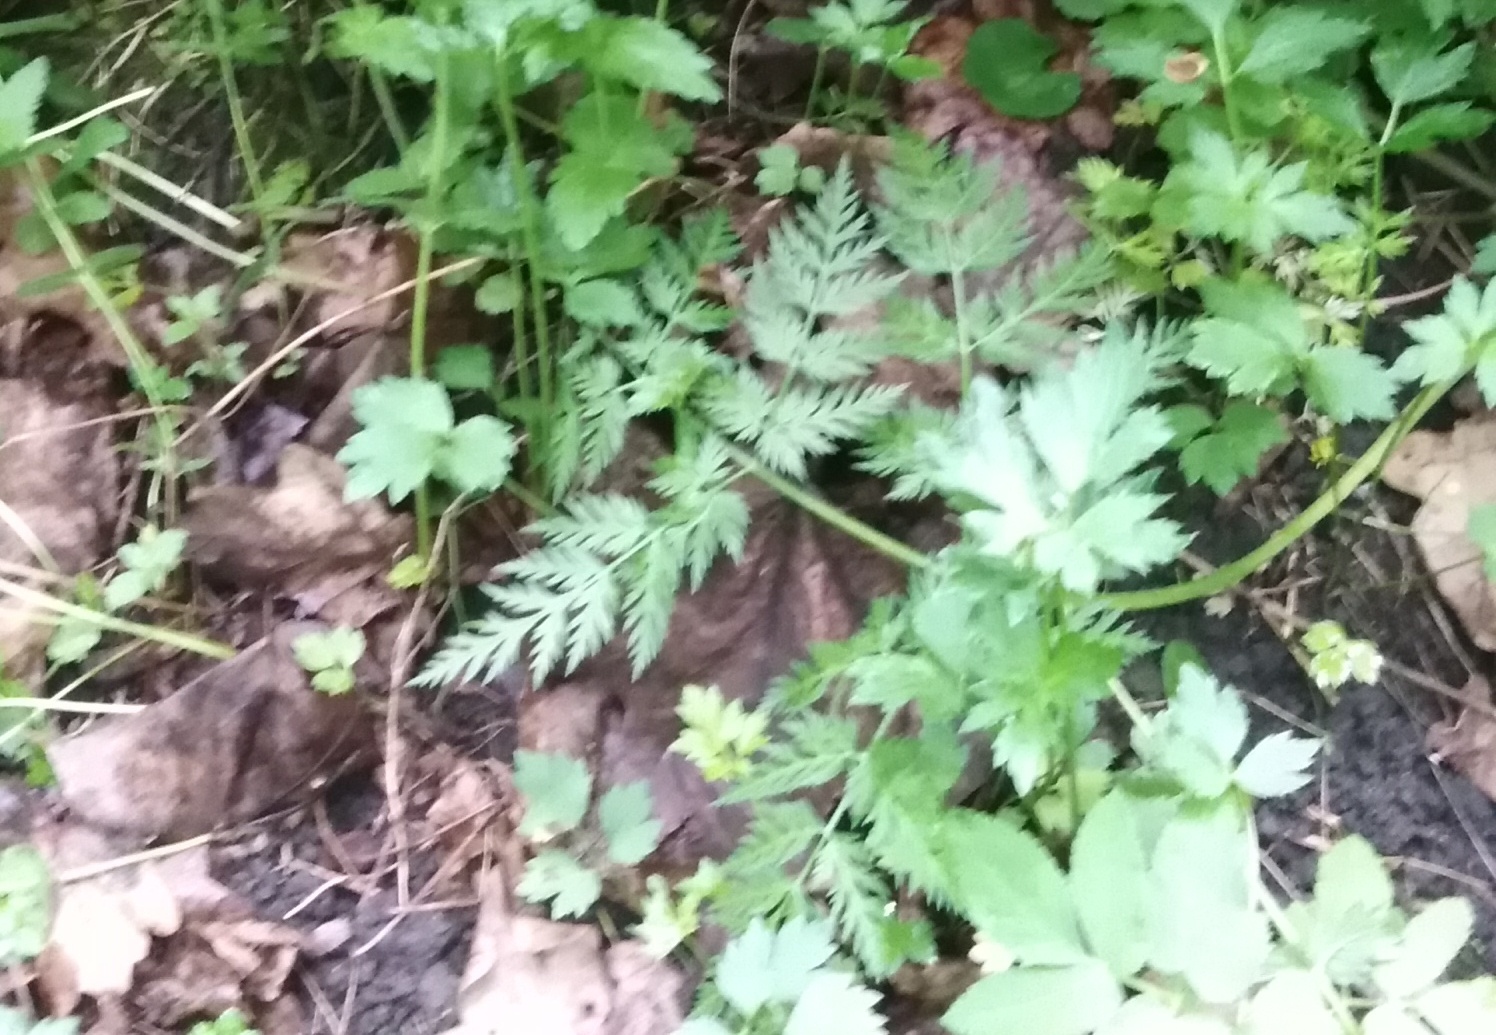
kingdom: Plantae
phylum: Tracheophyta
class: Magnoliopsida
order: Apiales
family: Apiaceae
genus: Anthriscus
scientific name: Anthriscus sylvestris
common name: Cow parsley
